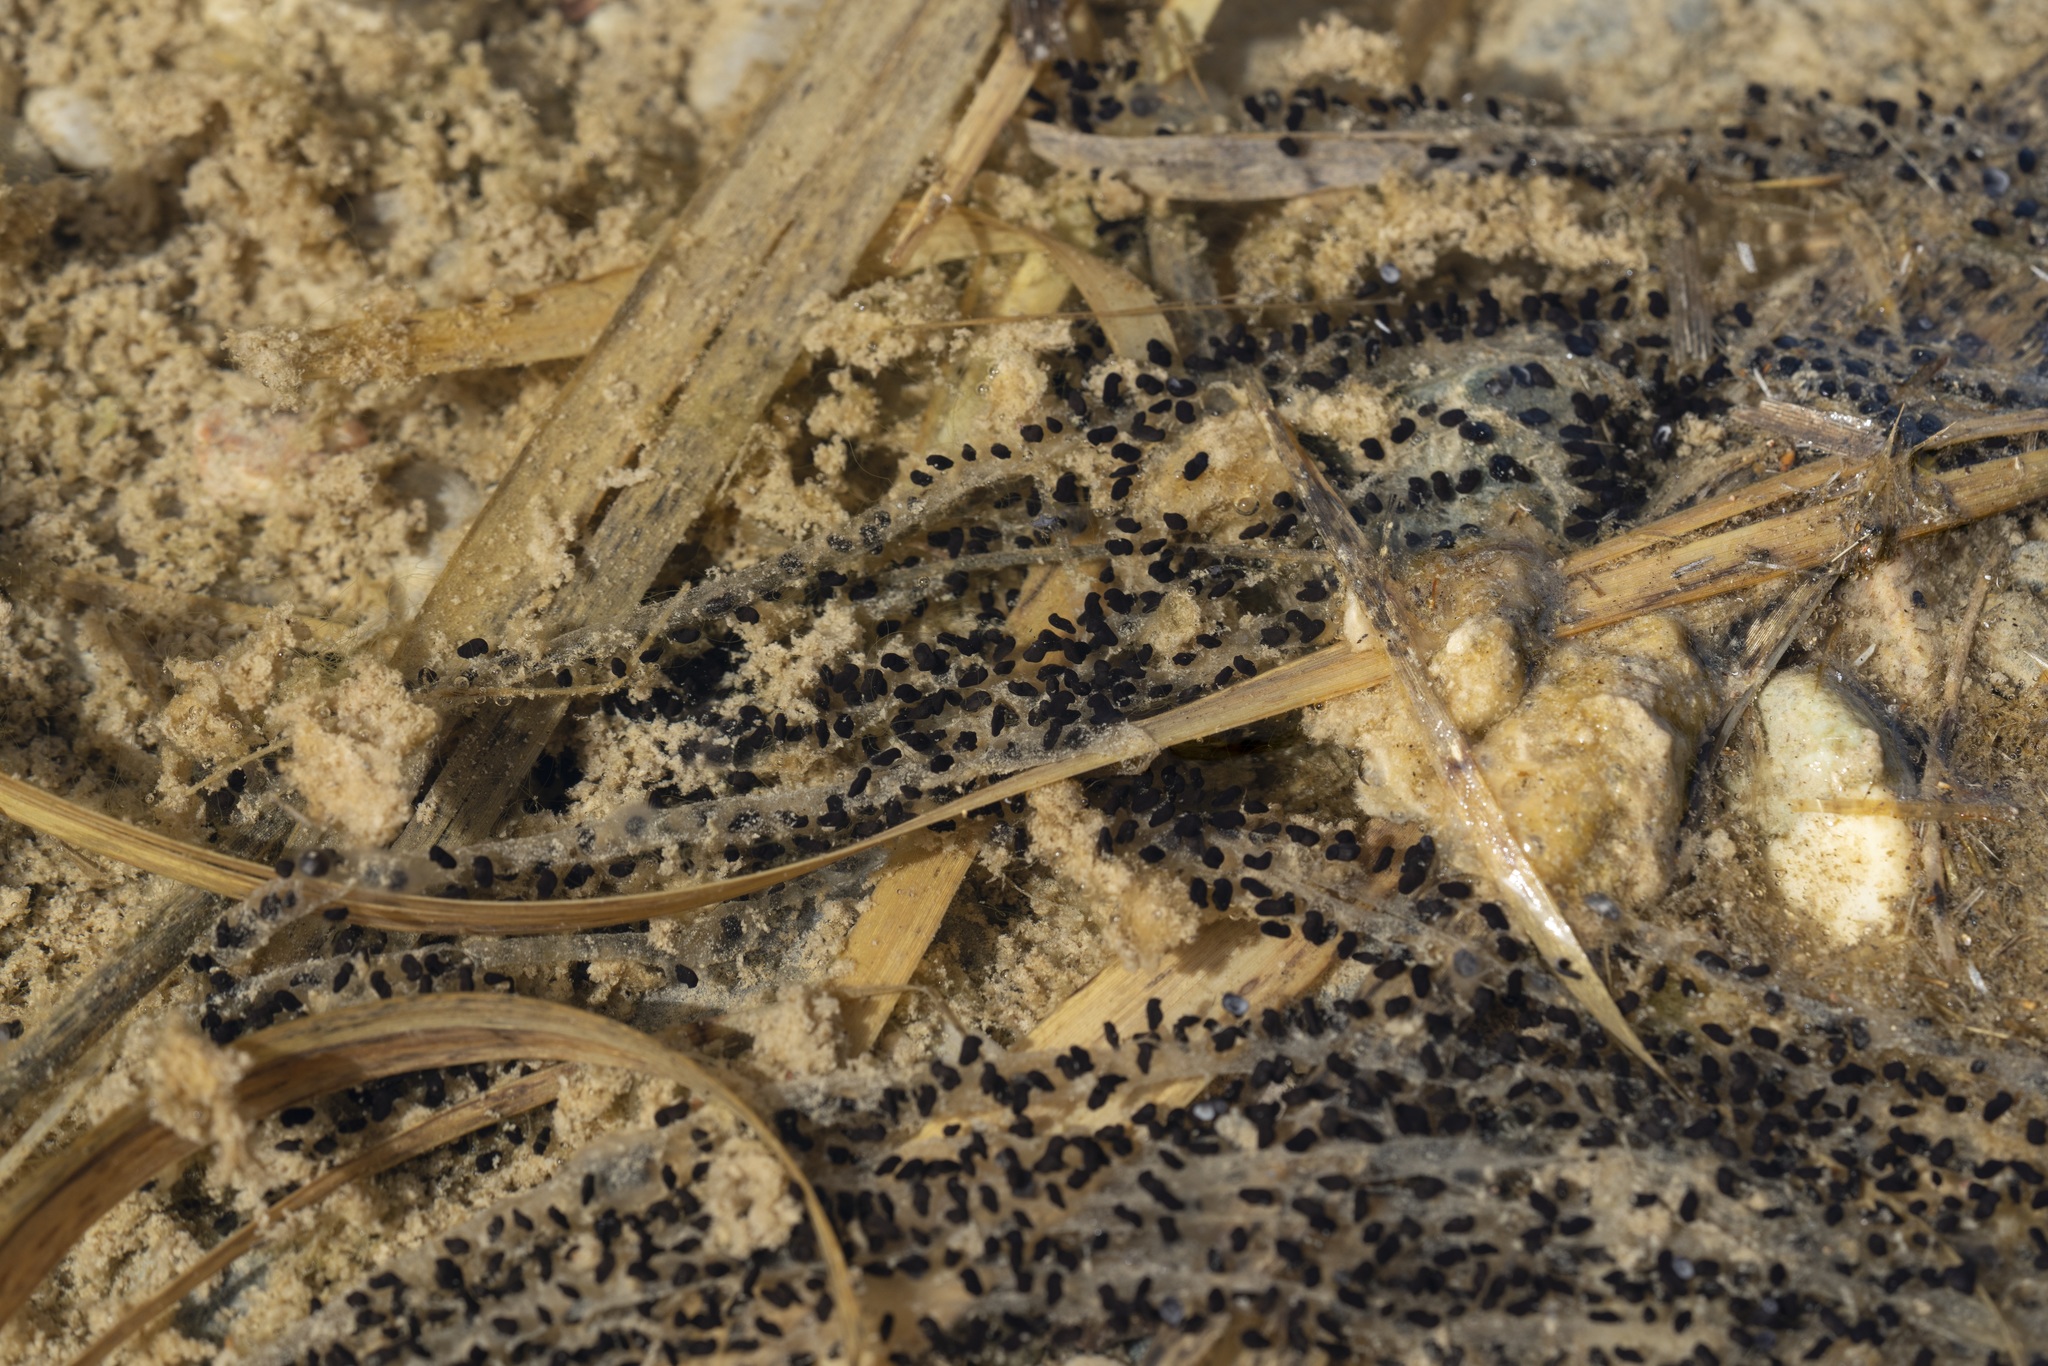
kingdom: Animalia
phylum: Chordata
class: Amphibia
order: Anura
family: Bufonidae
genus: Bufotes
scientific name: Bufotes viridis
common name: European green toad
